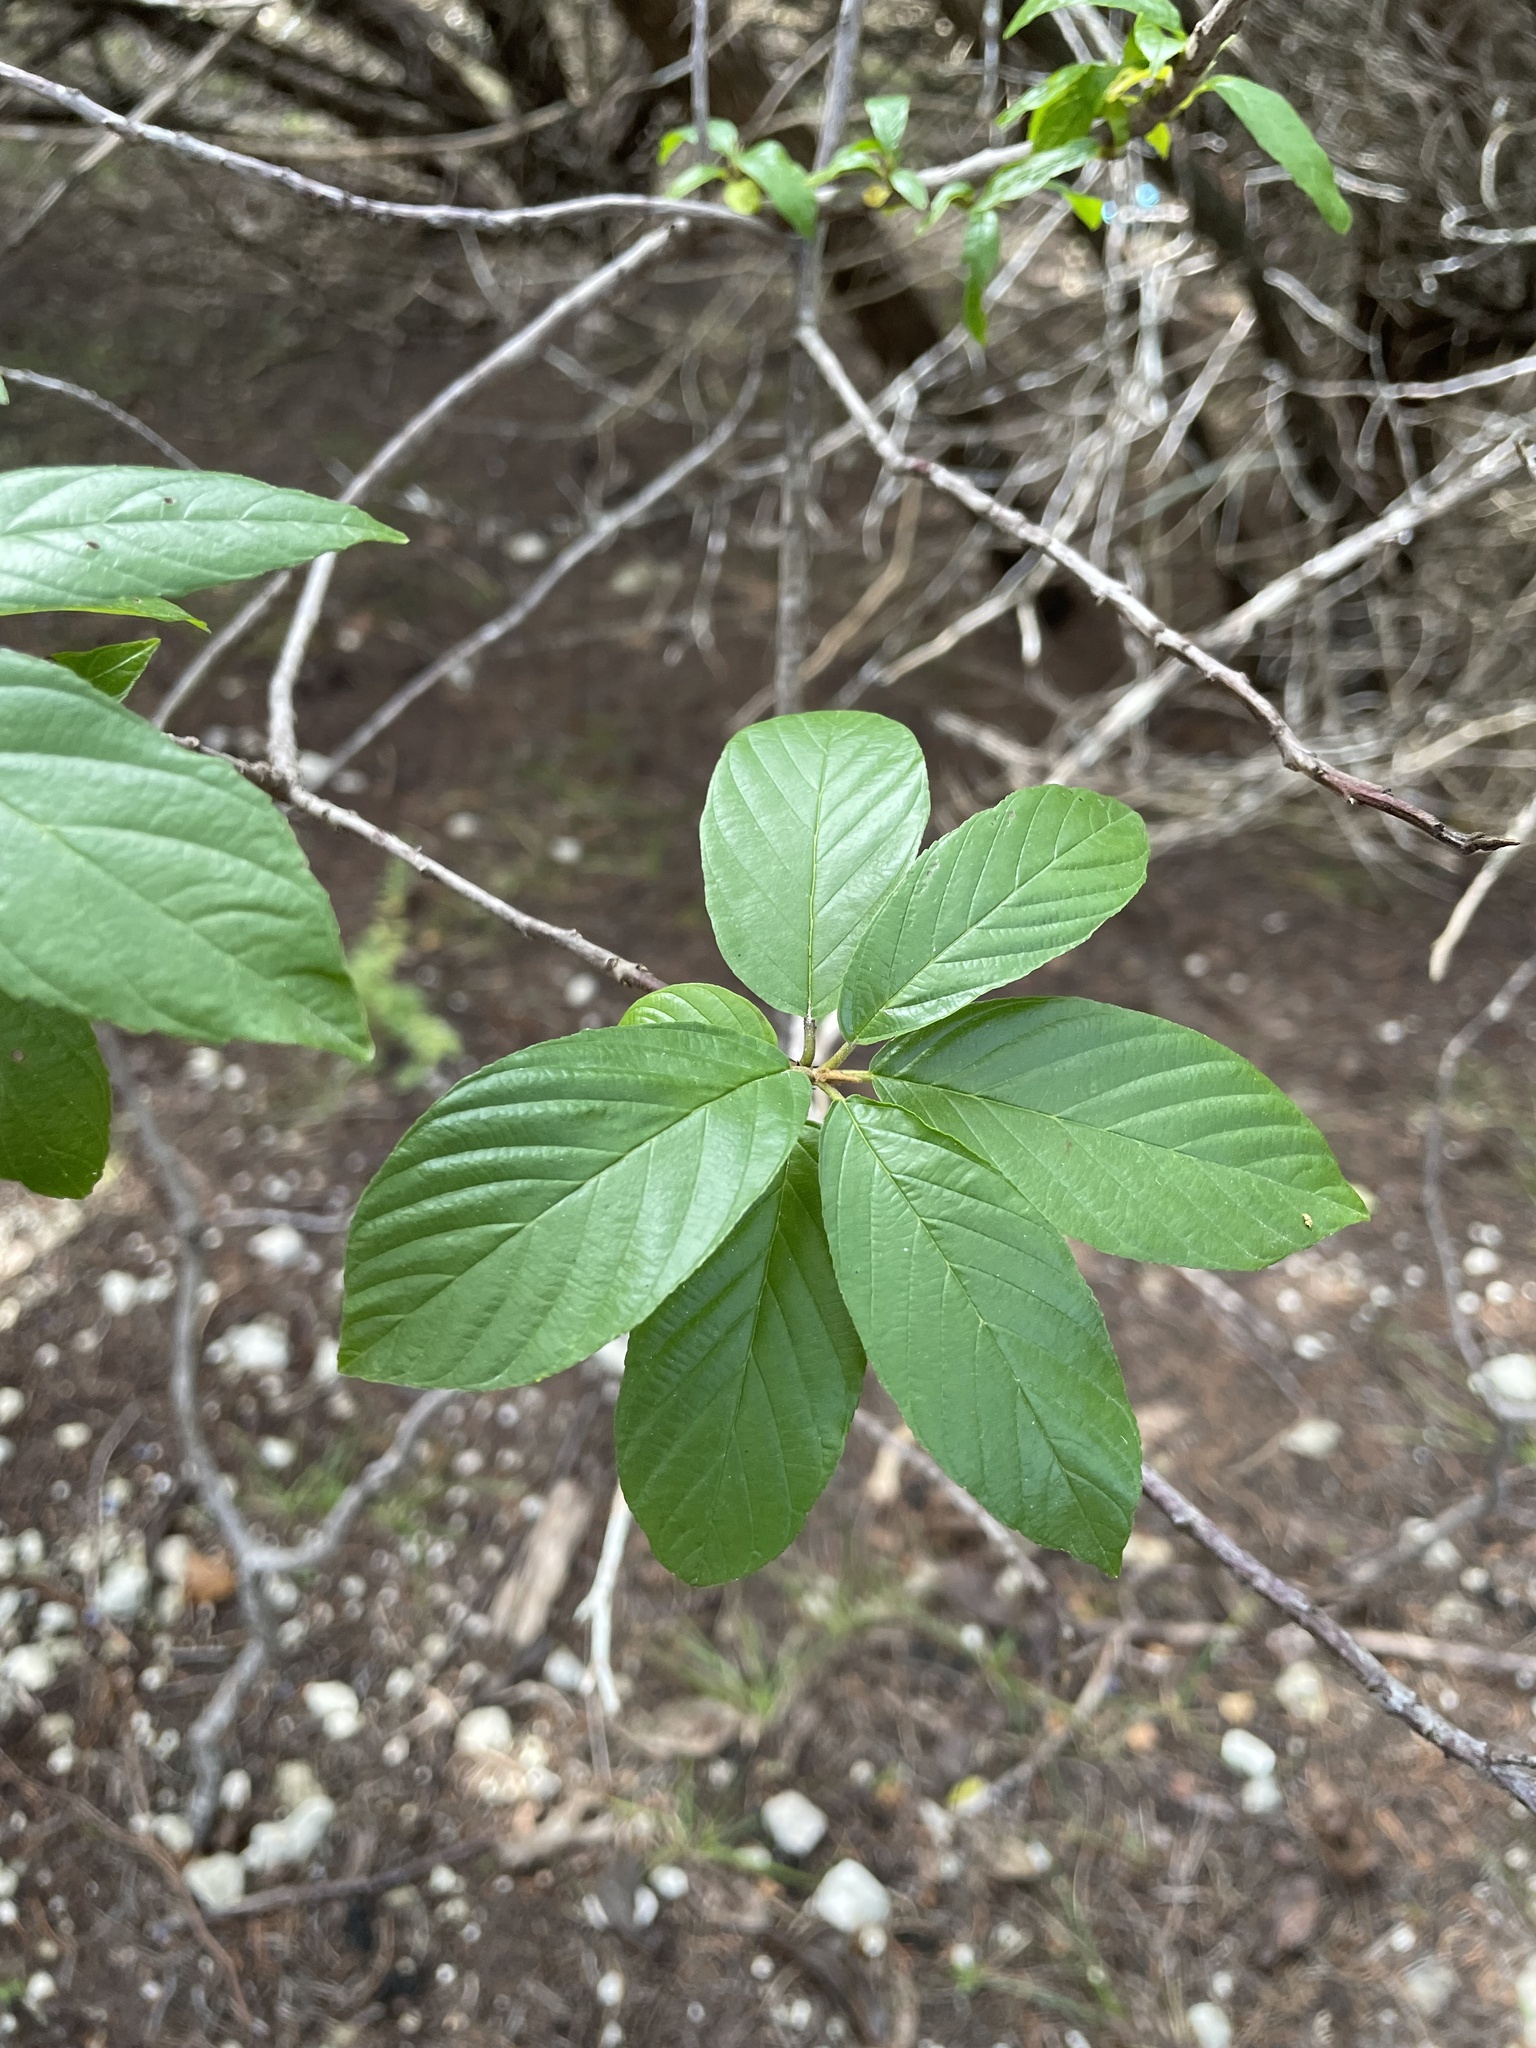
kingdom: Plantae
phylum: Tracheophyta
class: Magnoliopsida
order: Rosales
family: Rhamnaceae
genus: Frangula
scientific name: Frangula caroliniana
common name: Carolina buckthorn
